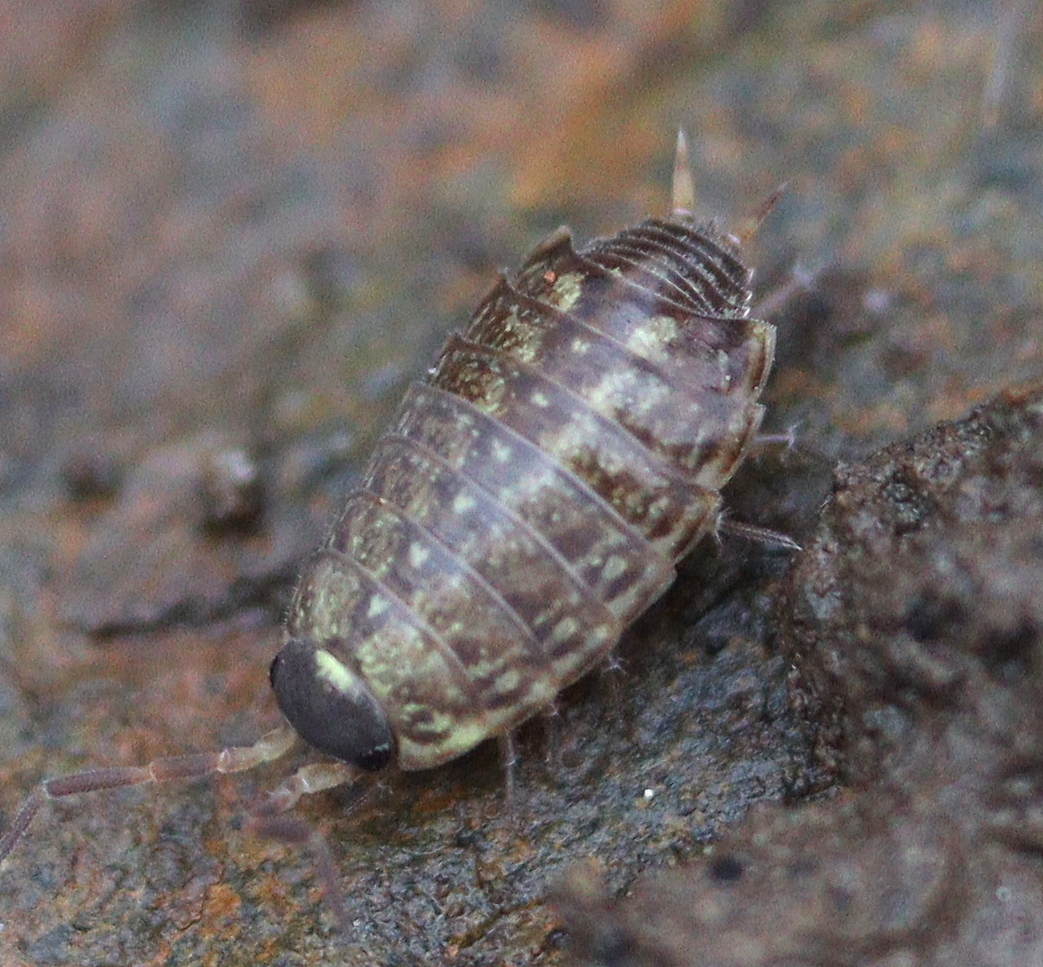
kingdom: Animalia
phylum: Arthropoda
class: Malacostraca
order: Isopoda
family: Philosciidae
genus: Philoscia
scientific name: Philoscia muscorum
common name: Common striped woodlouse
